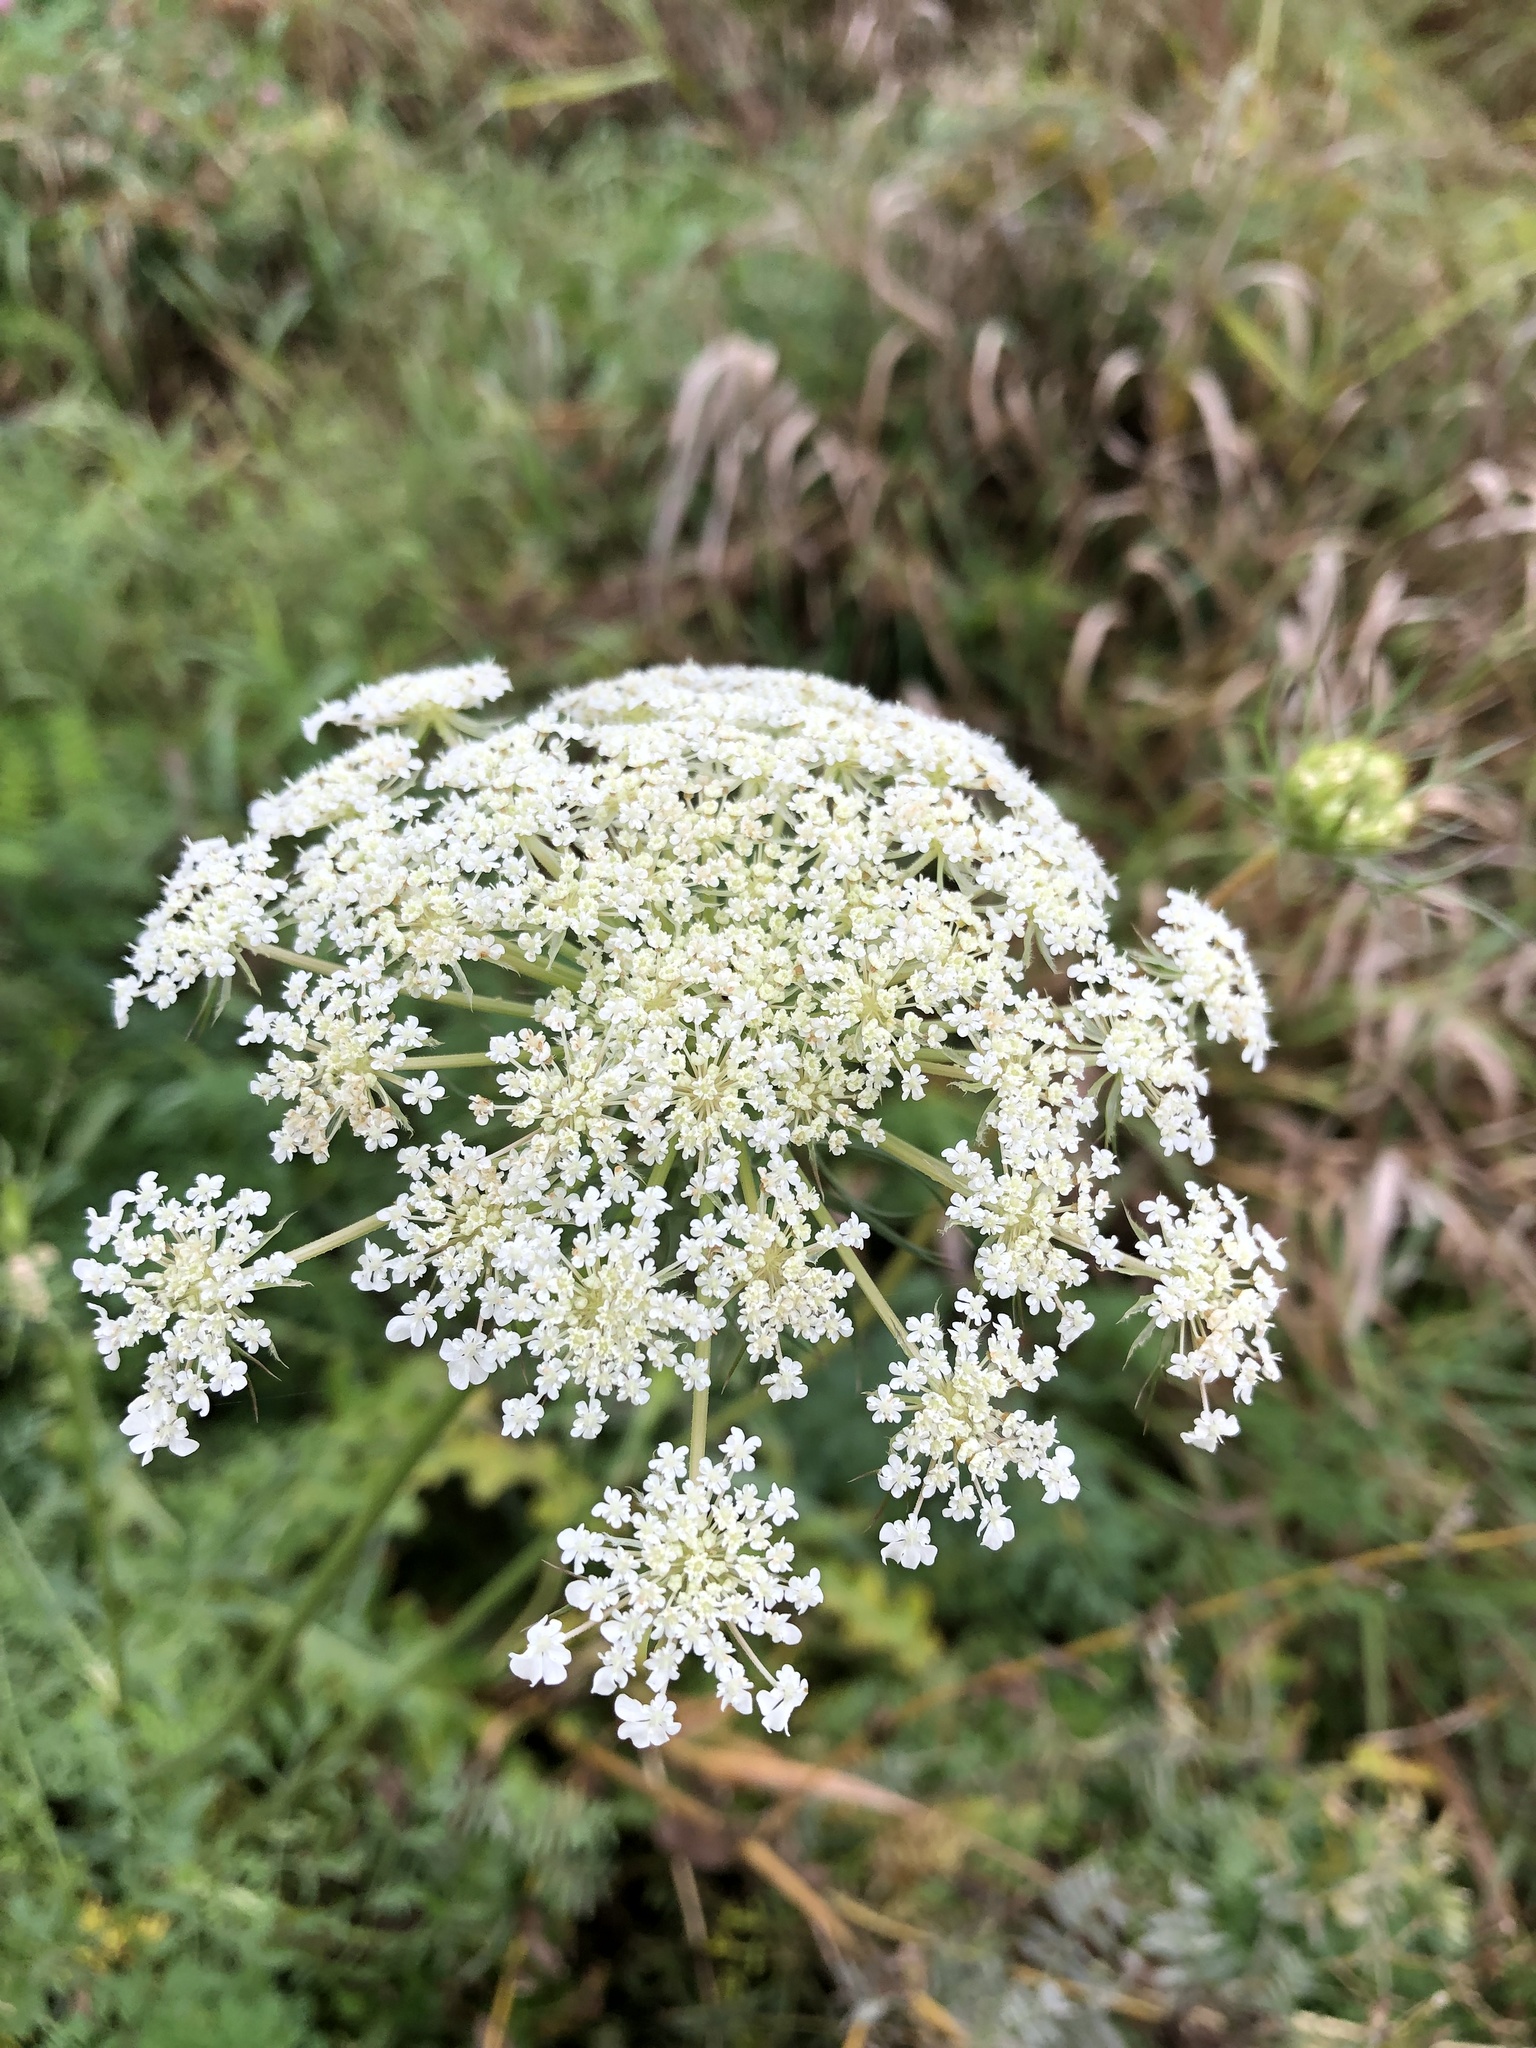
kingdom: Plantae
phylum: Tracheophyta
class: Magnoliopsida
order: Apiales
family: Apiaceae
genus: Daucus
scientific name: Daucus carota
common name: Wild carrot
